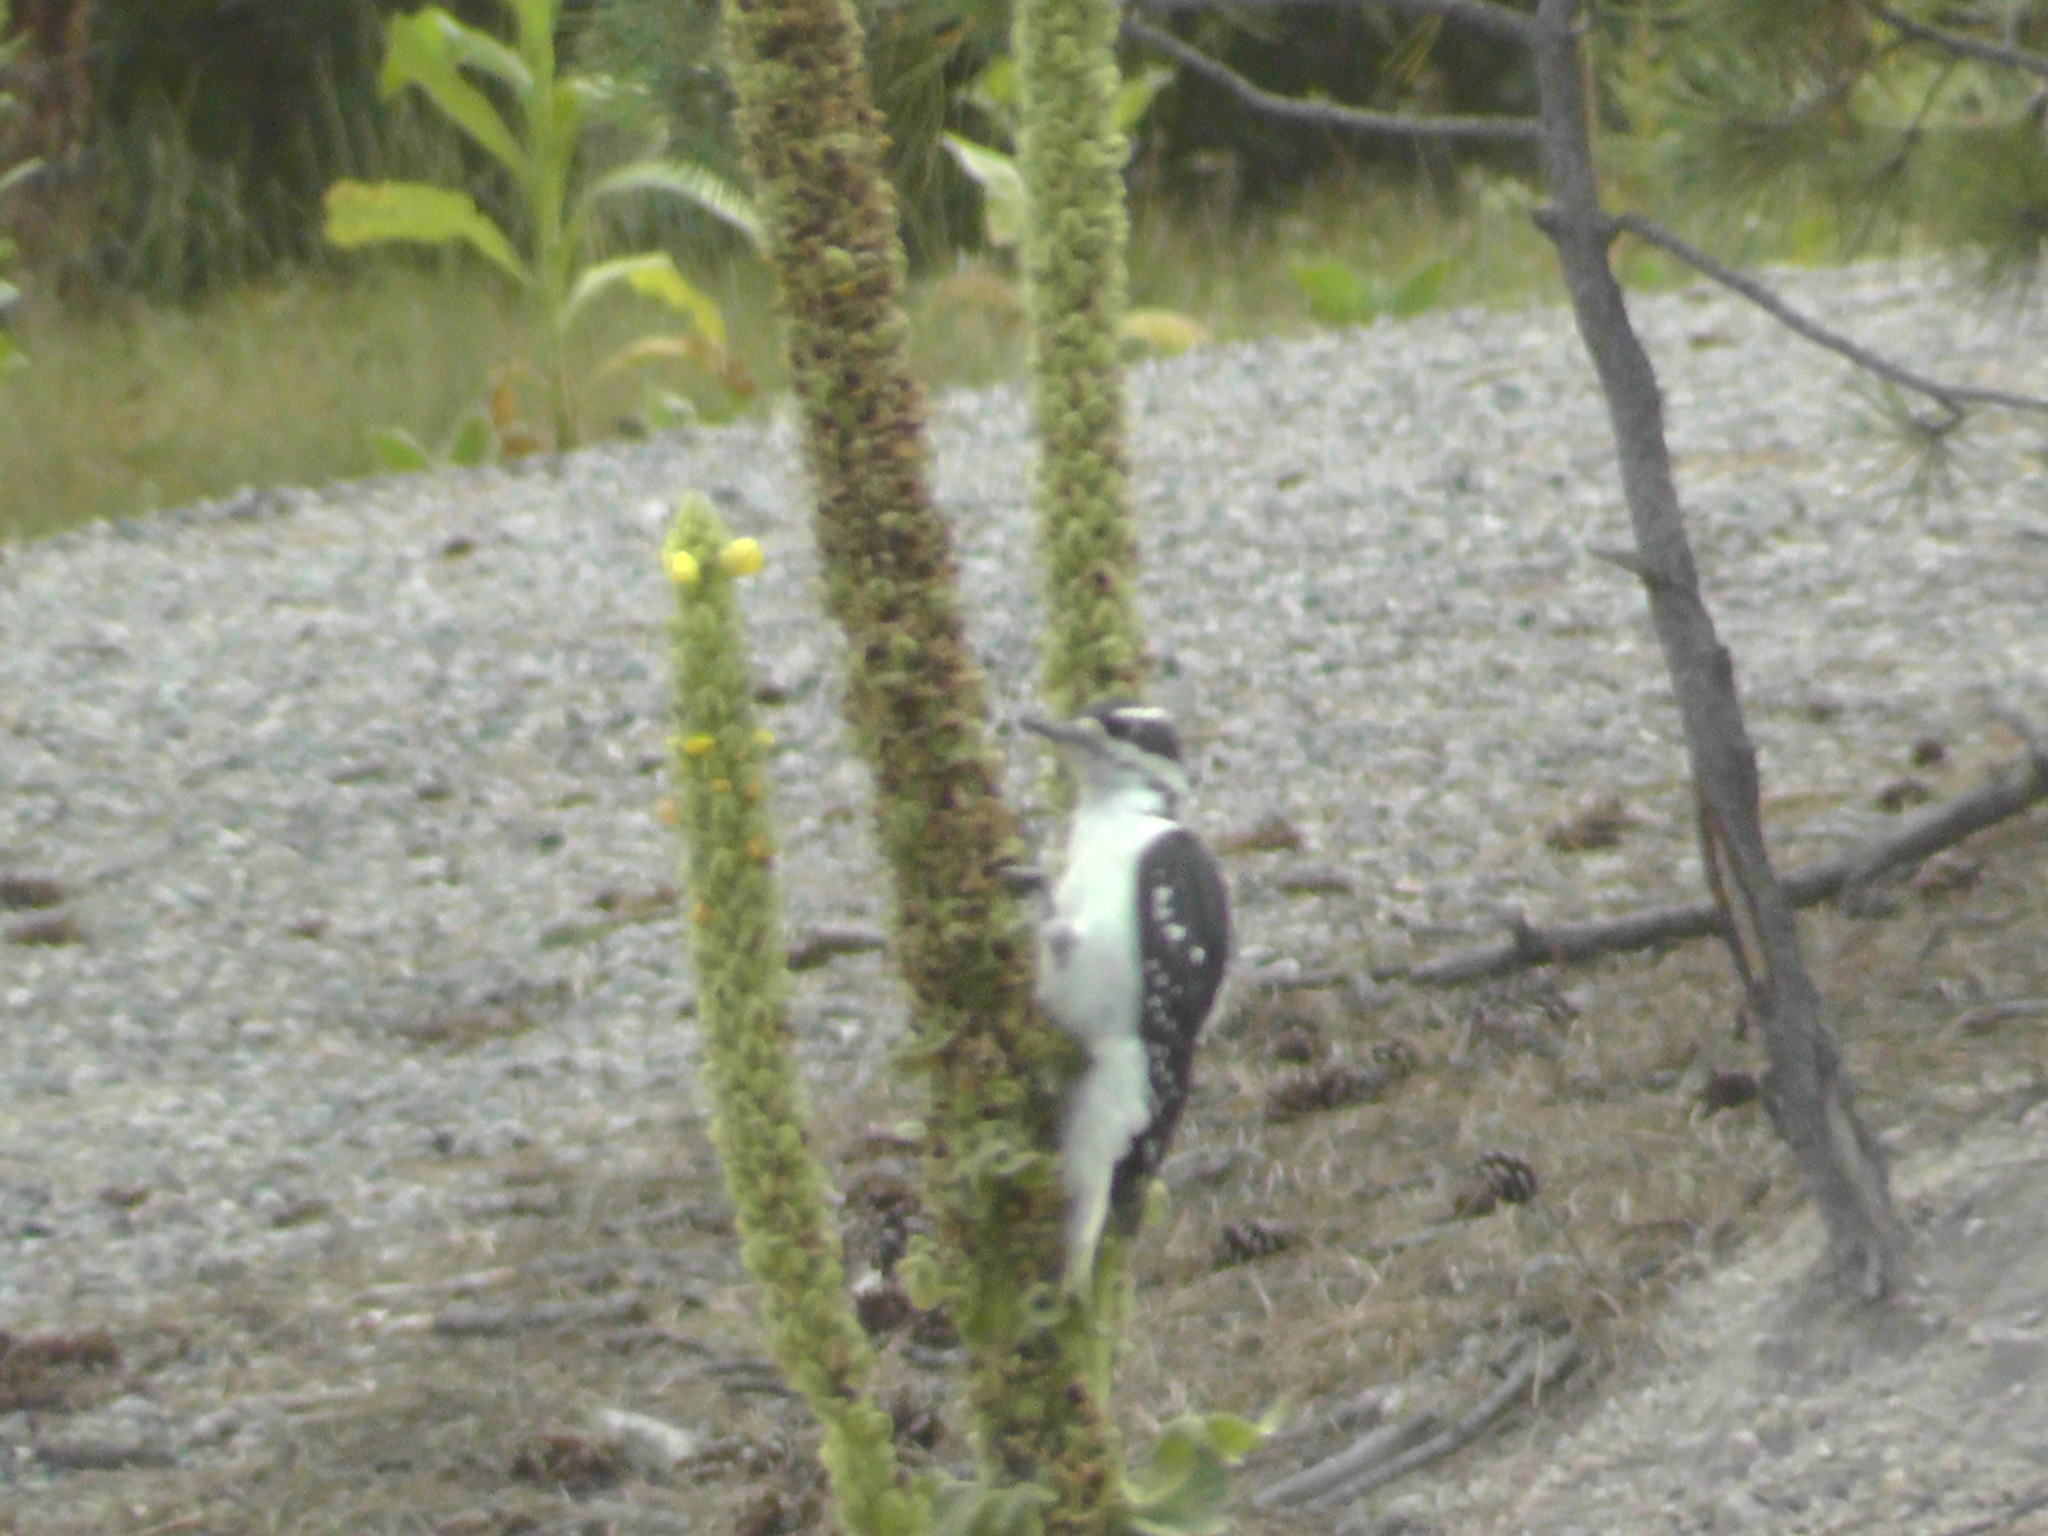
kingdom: Animalia
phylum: Chordata
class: Aves
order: Piciformes
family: Picidae
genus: Leuconotopicus
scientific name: Leuconotopicus villosus
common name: Hairy woodpecker
